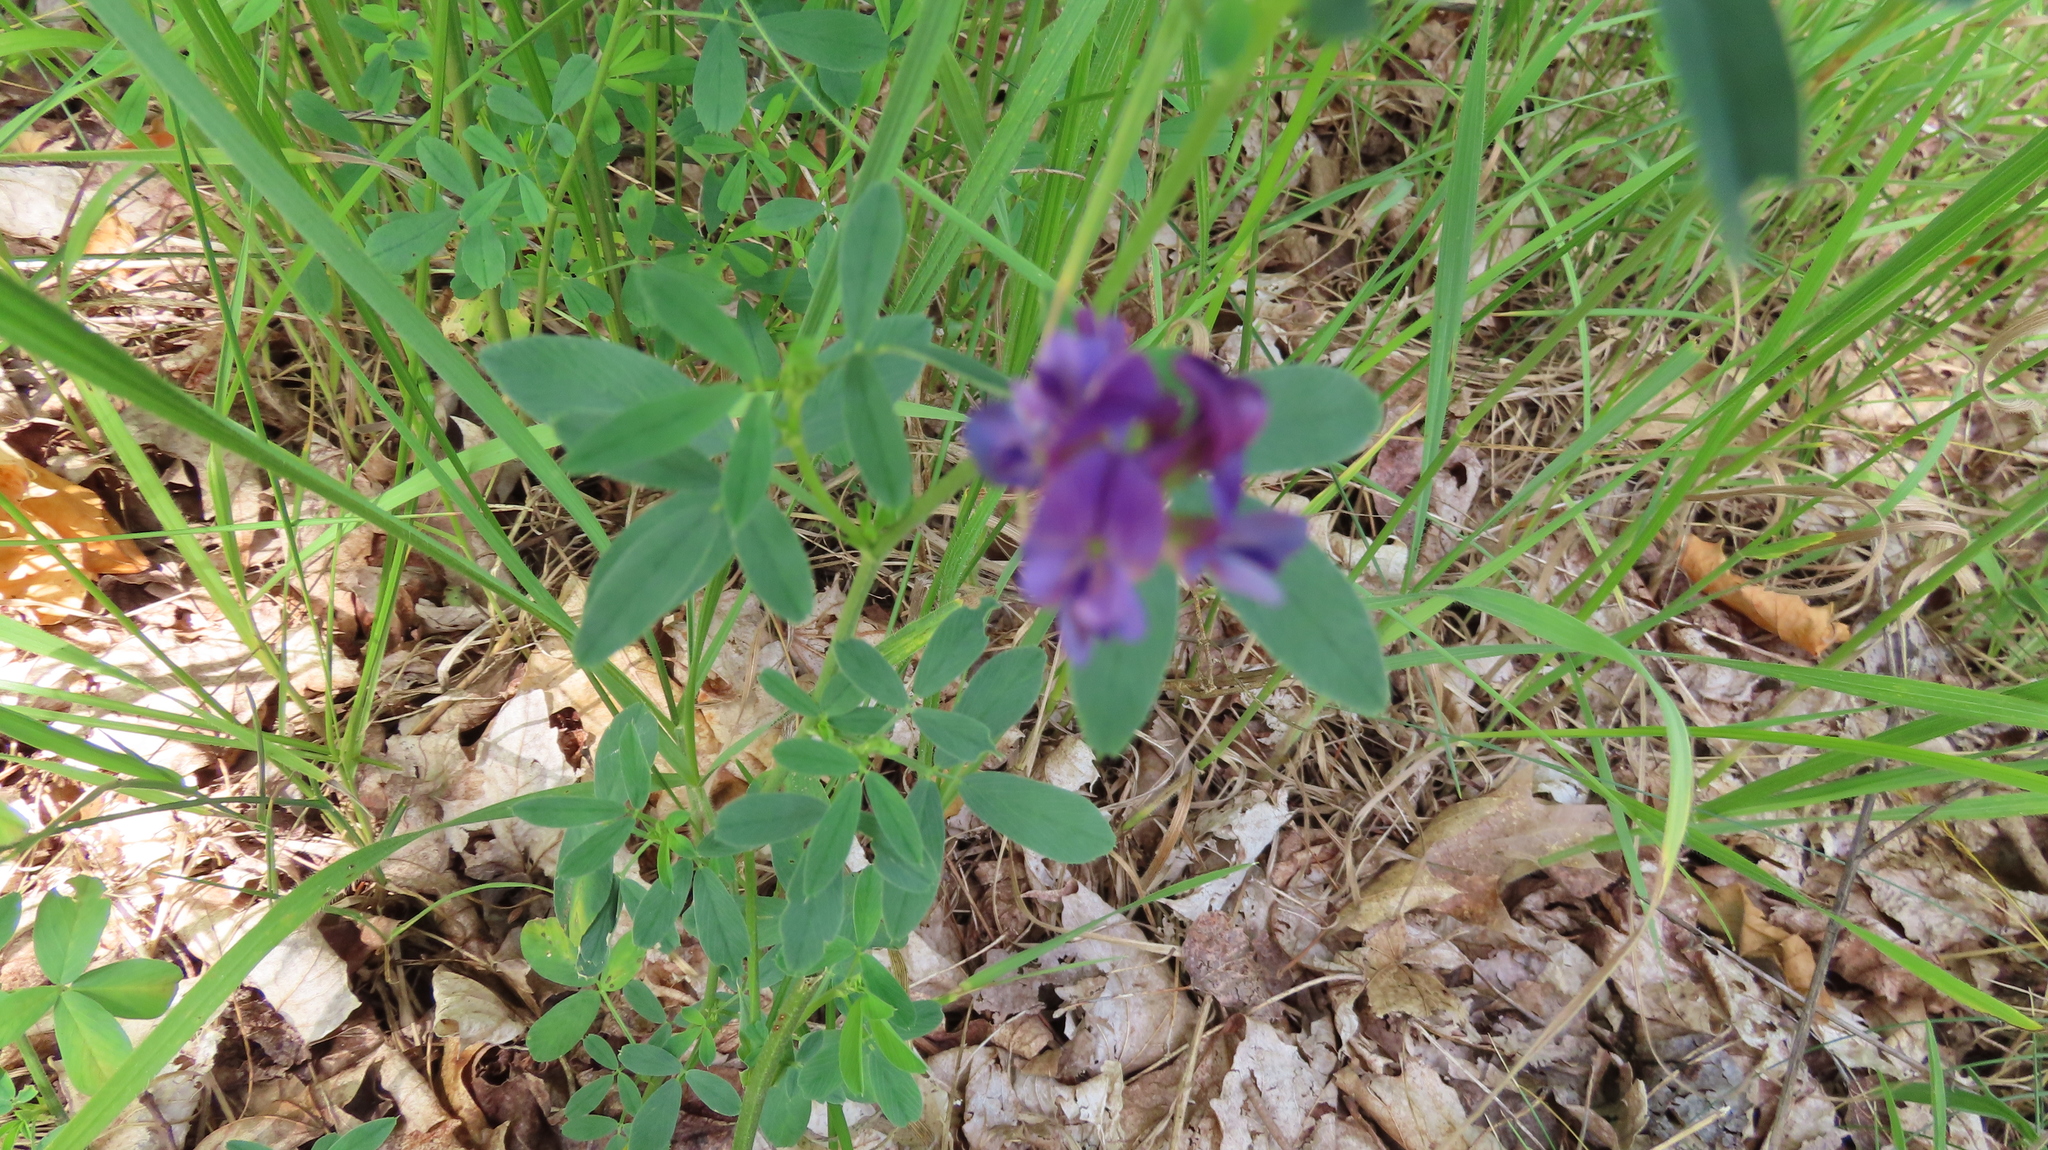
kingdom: Plantae
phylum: Tracheophyta
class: Magnoliopsida
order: Fabales
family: Fabaceae
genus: Medicago
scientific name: Medicago sativa
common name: Alfalfa
